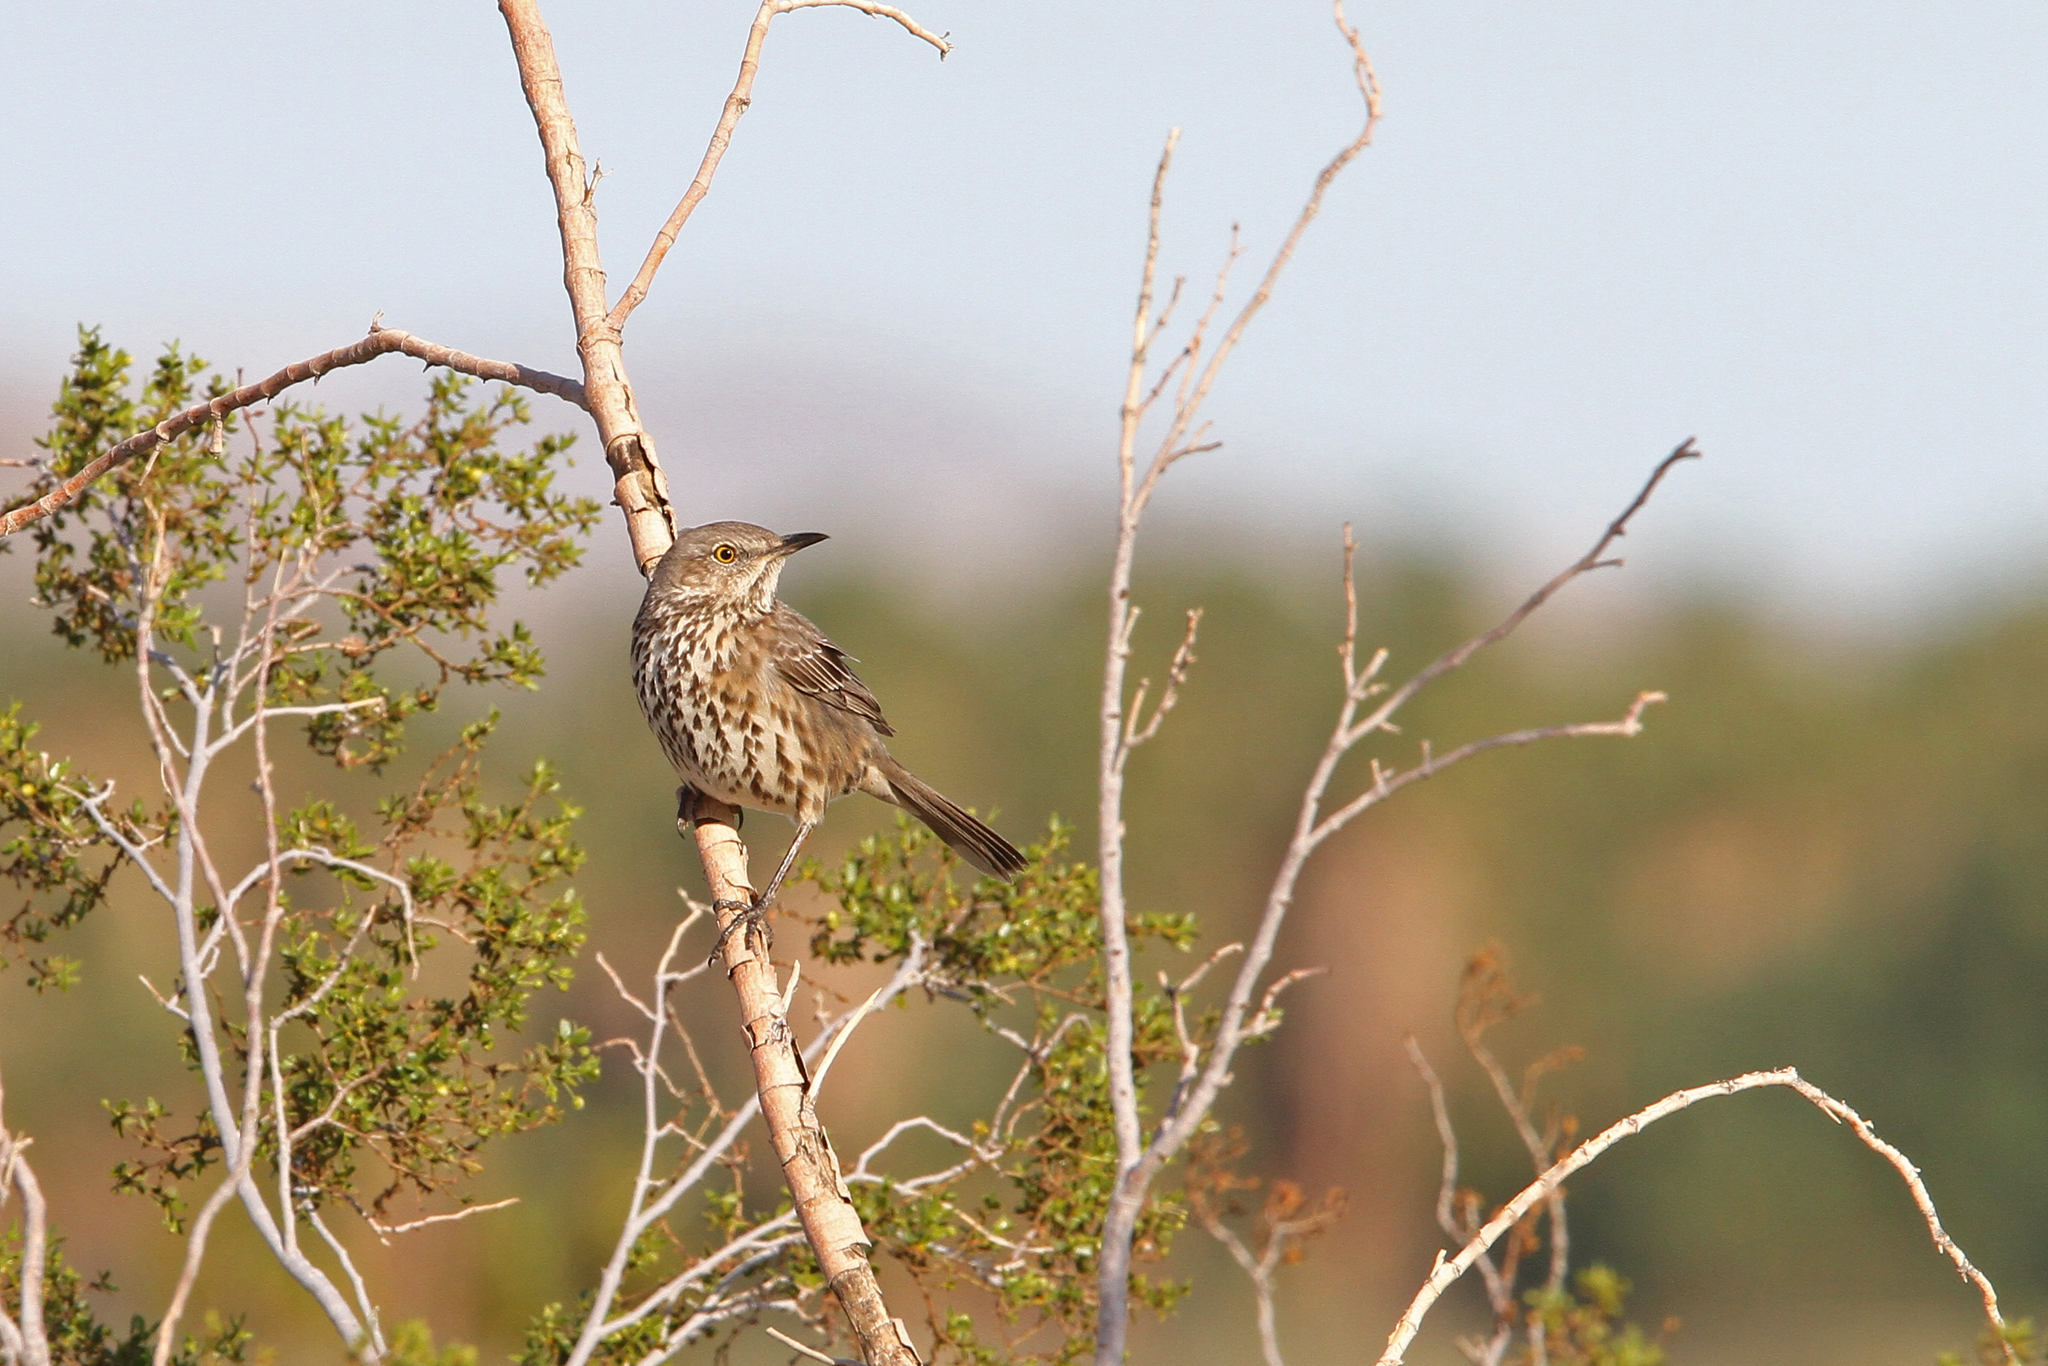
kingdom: Animalia
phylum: Chordata
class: Aves
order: Passeriformes
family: Mimidae
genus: Oreoscoptes
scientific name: Oreoscoptes montanus
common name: Sage thrasher
